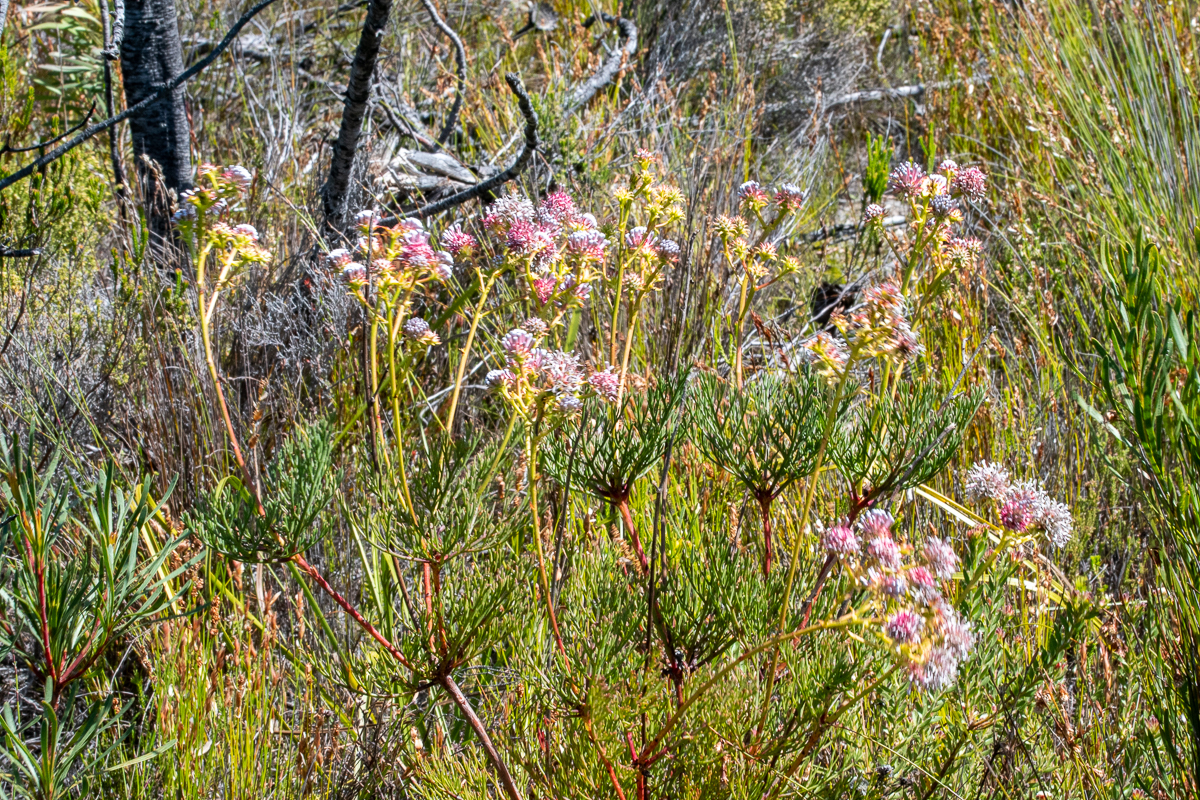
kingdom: Plantae
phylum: Tracheophyta
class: Magnoliopsida
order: Proteales
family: Proteaceae
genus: Serruria
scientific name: Serruria elongata
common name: Long-stalk spiderhead
